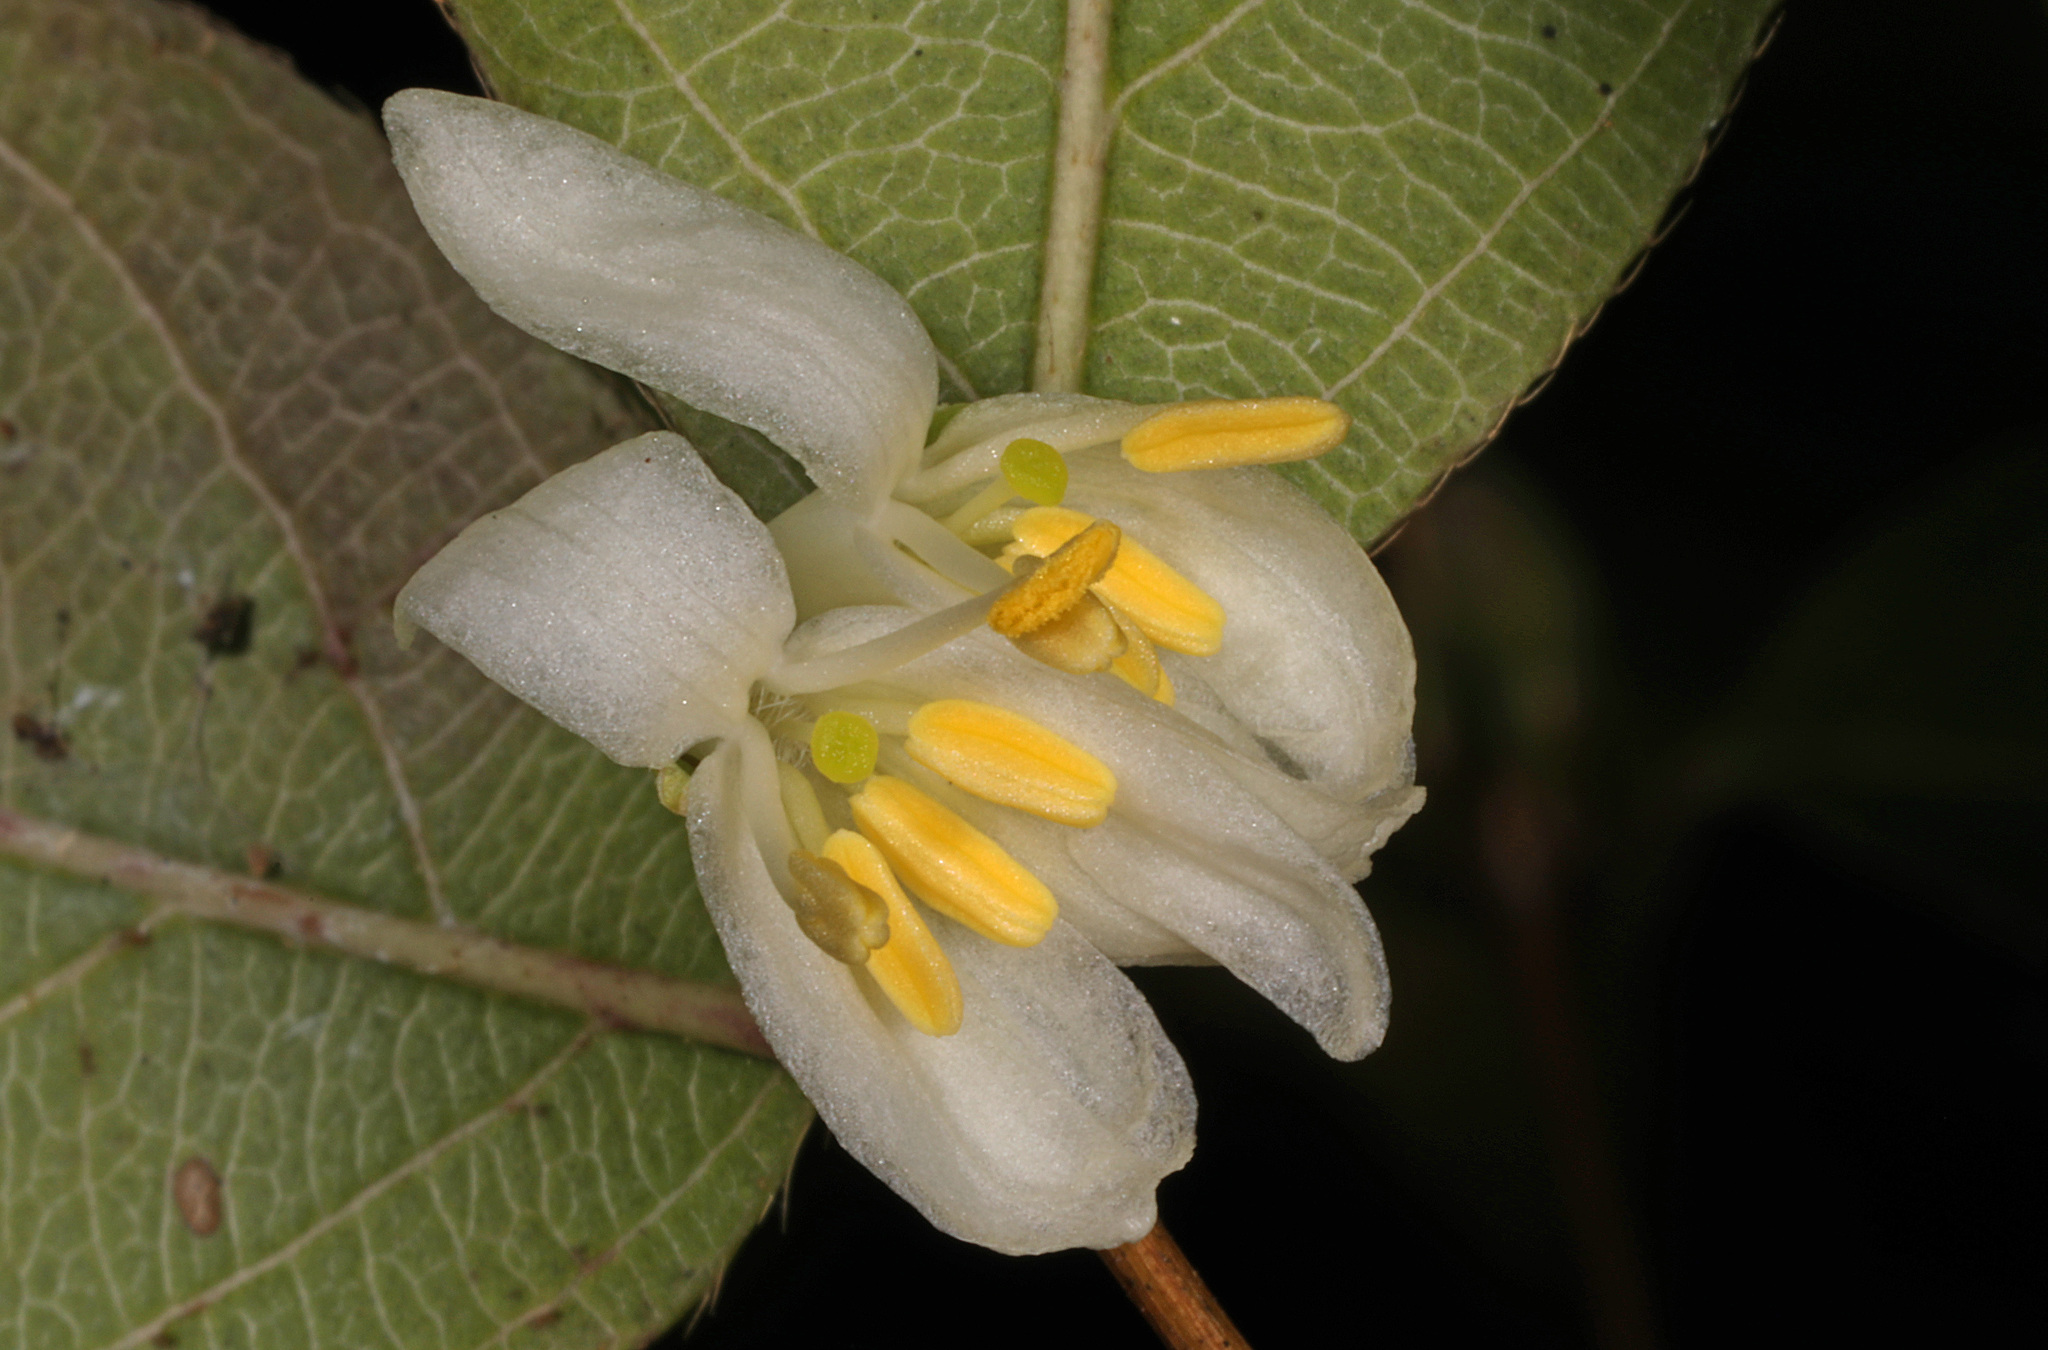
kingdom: Plantae
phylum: Tracheophyta
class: Magnoliopsida
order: Dipsacales
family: Caprifoliaceae
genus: Lonicera
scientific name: Lonicera fragrantissima
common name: Fragrant honeysuckle
